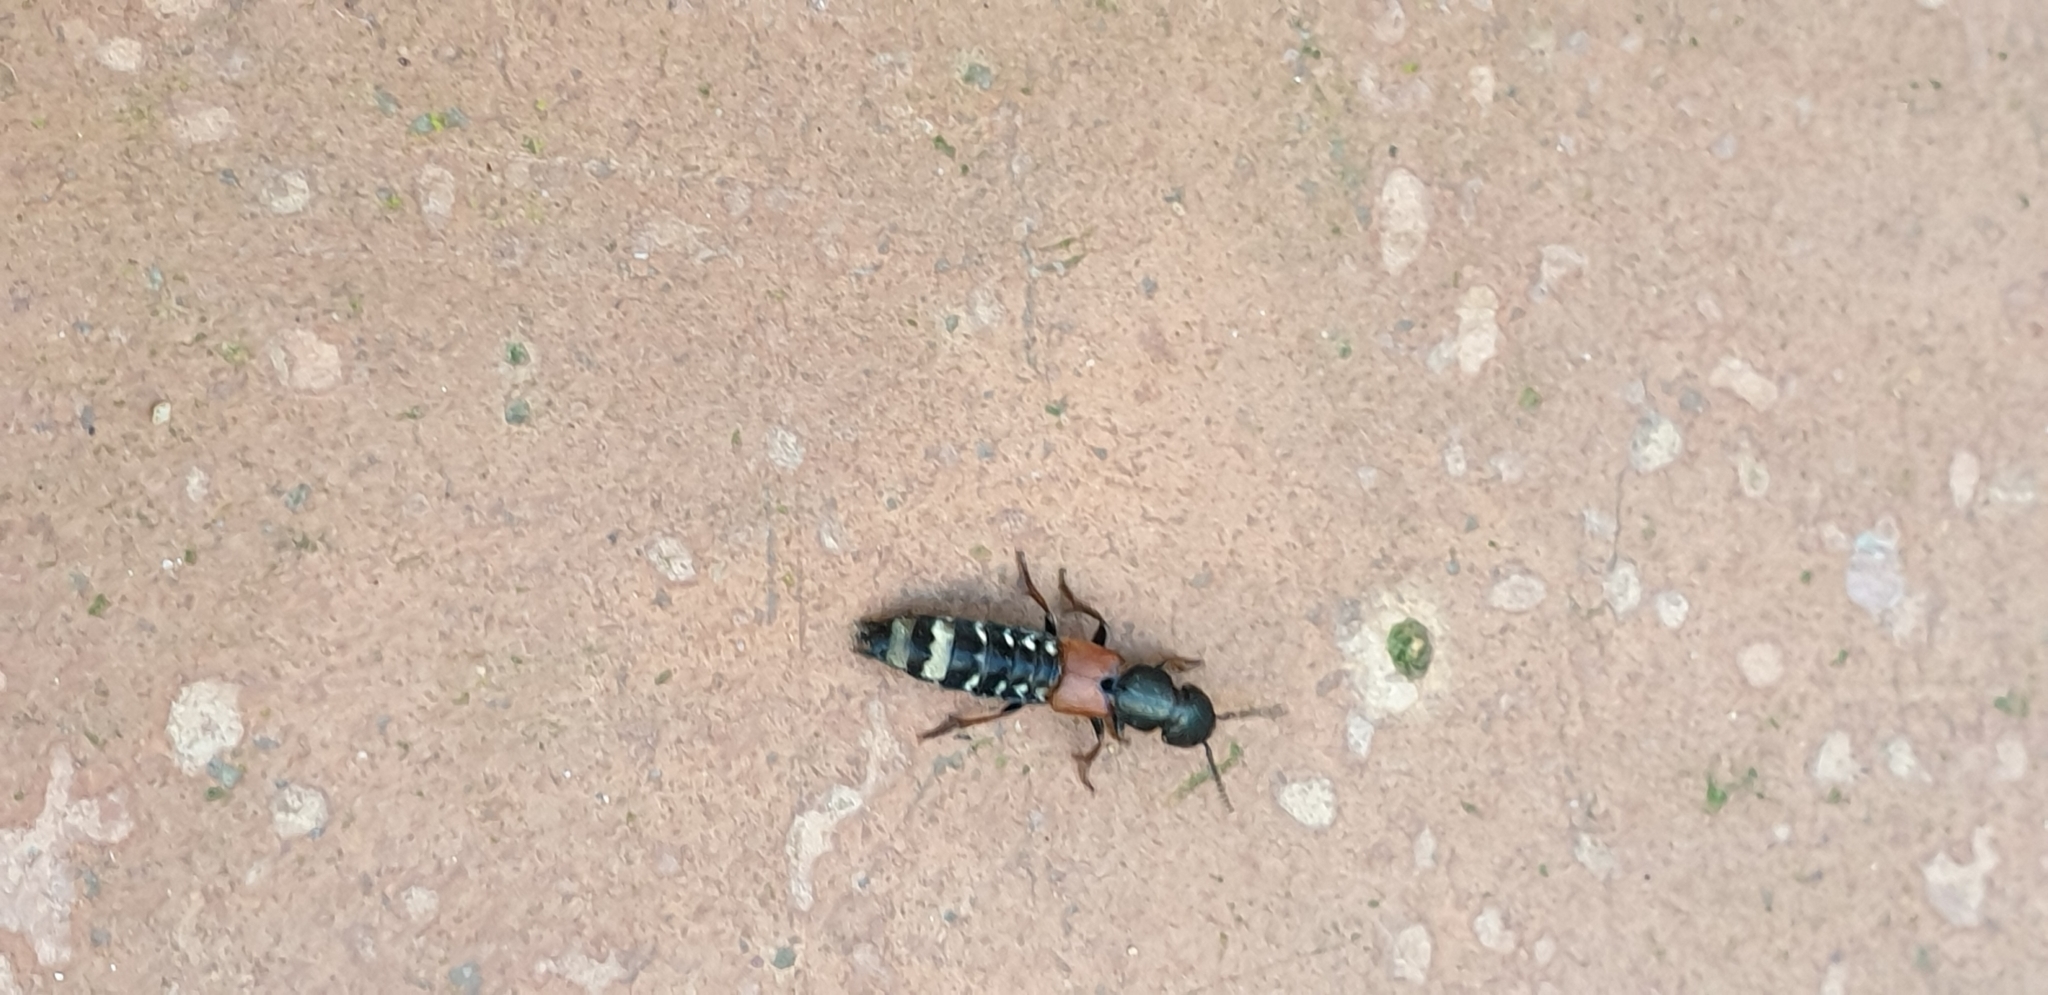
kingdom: Animalia
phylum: Arthropoda
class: Insecta
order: Coleoptera
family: Staphylinidae
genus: Platydracus
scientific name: Platydracus stercorarius
